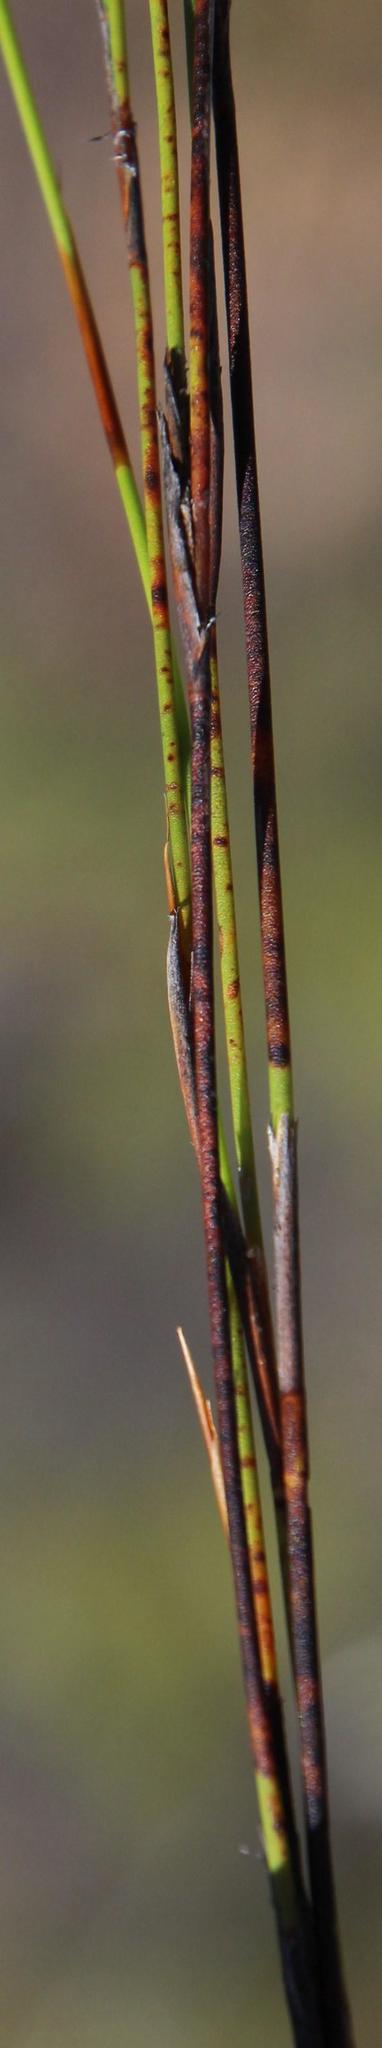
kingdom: Plantae
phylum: Tracheophyta
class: Liliopsida
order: Poales
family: Restionaceae
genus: Restio
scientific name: Restio gossypinus
